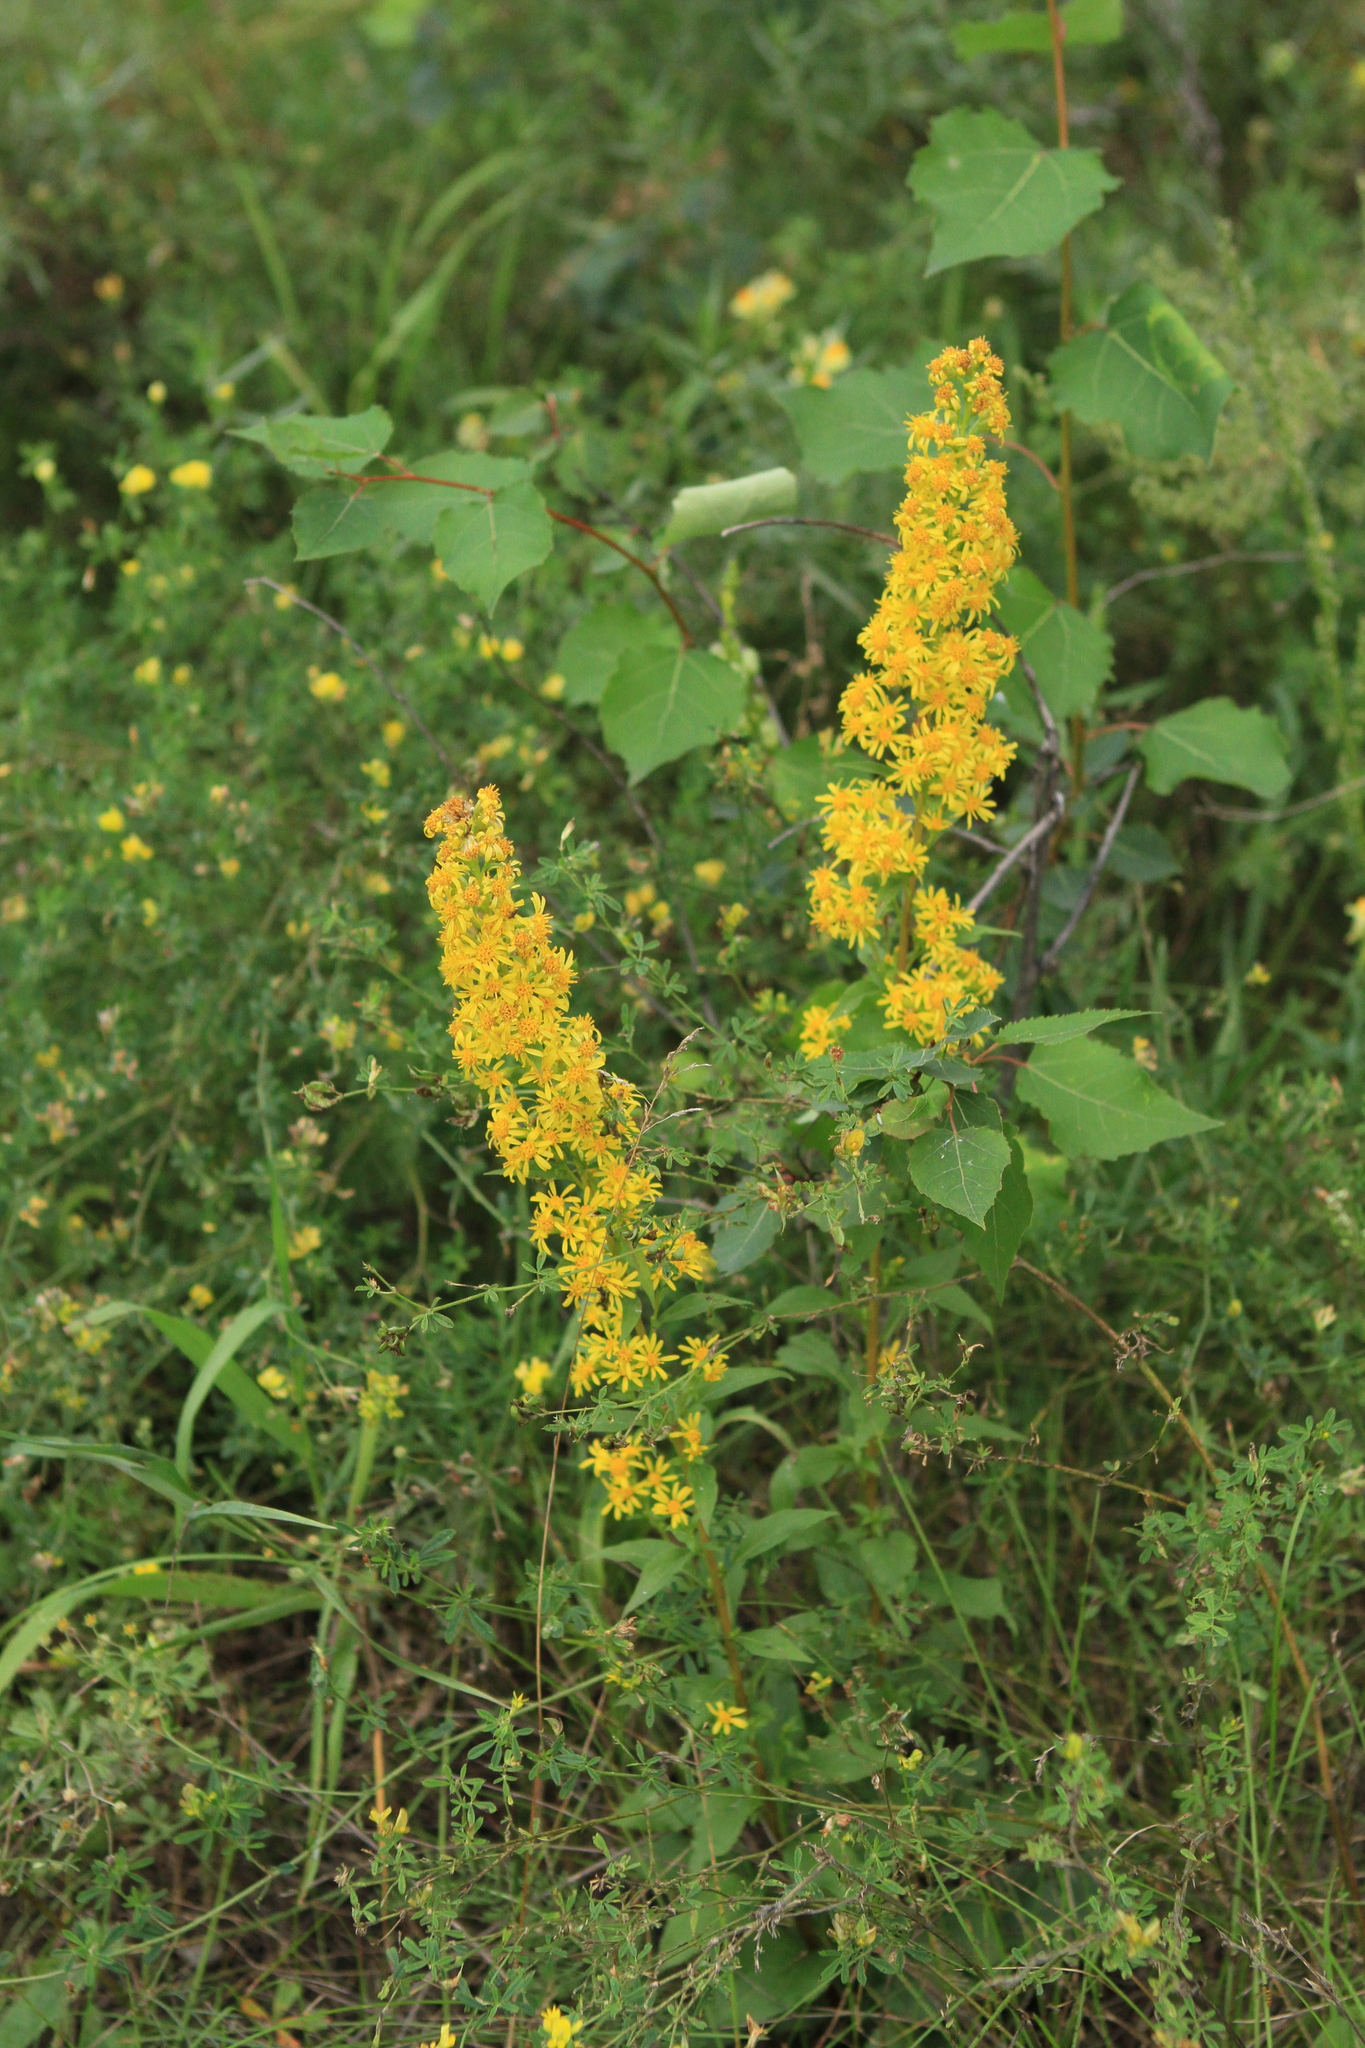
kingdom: Plantae
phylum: Tracheophyta
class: Magnoliopsida
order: Asterales
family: Asteraceae
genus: Solidago
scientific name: Solidago virgaurea
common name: Goldenrod
